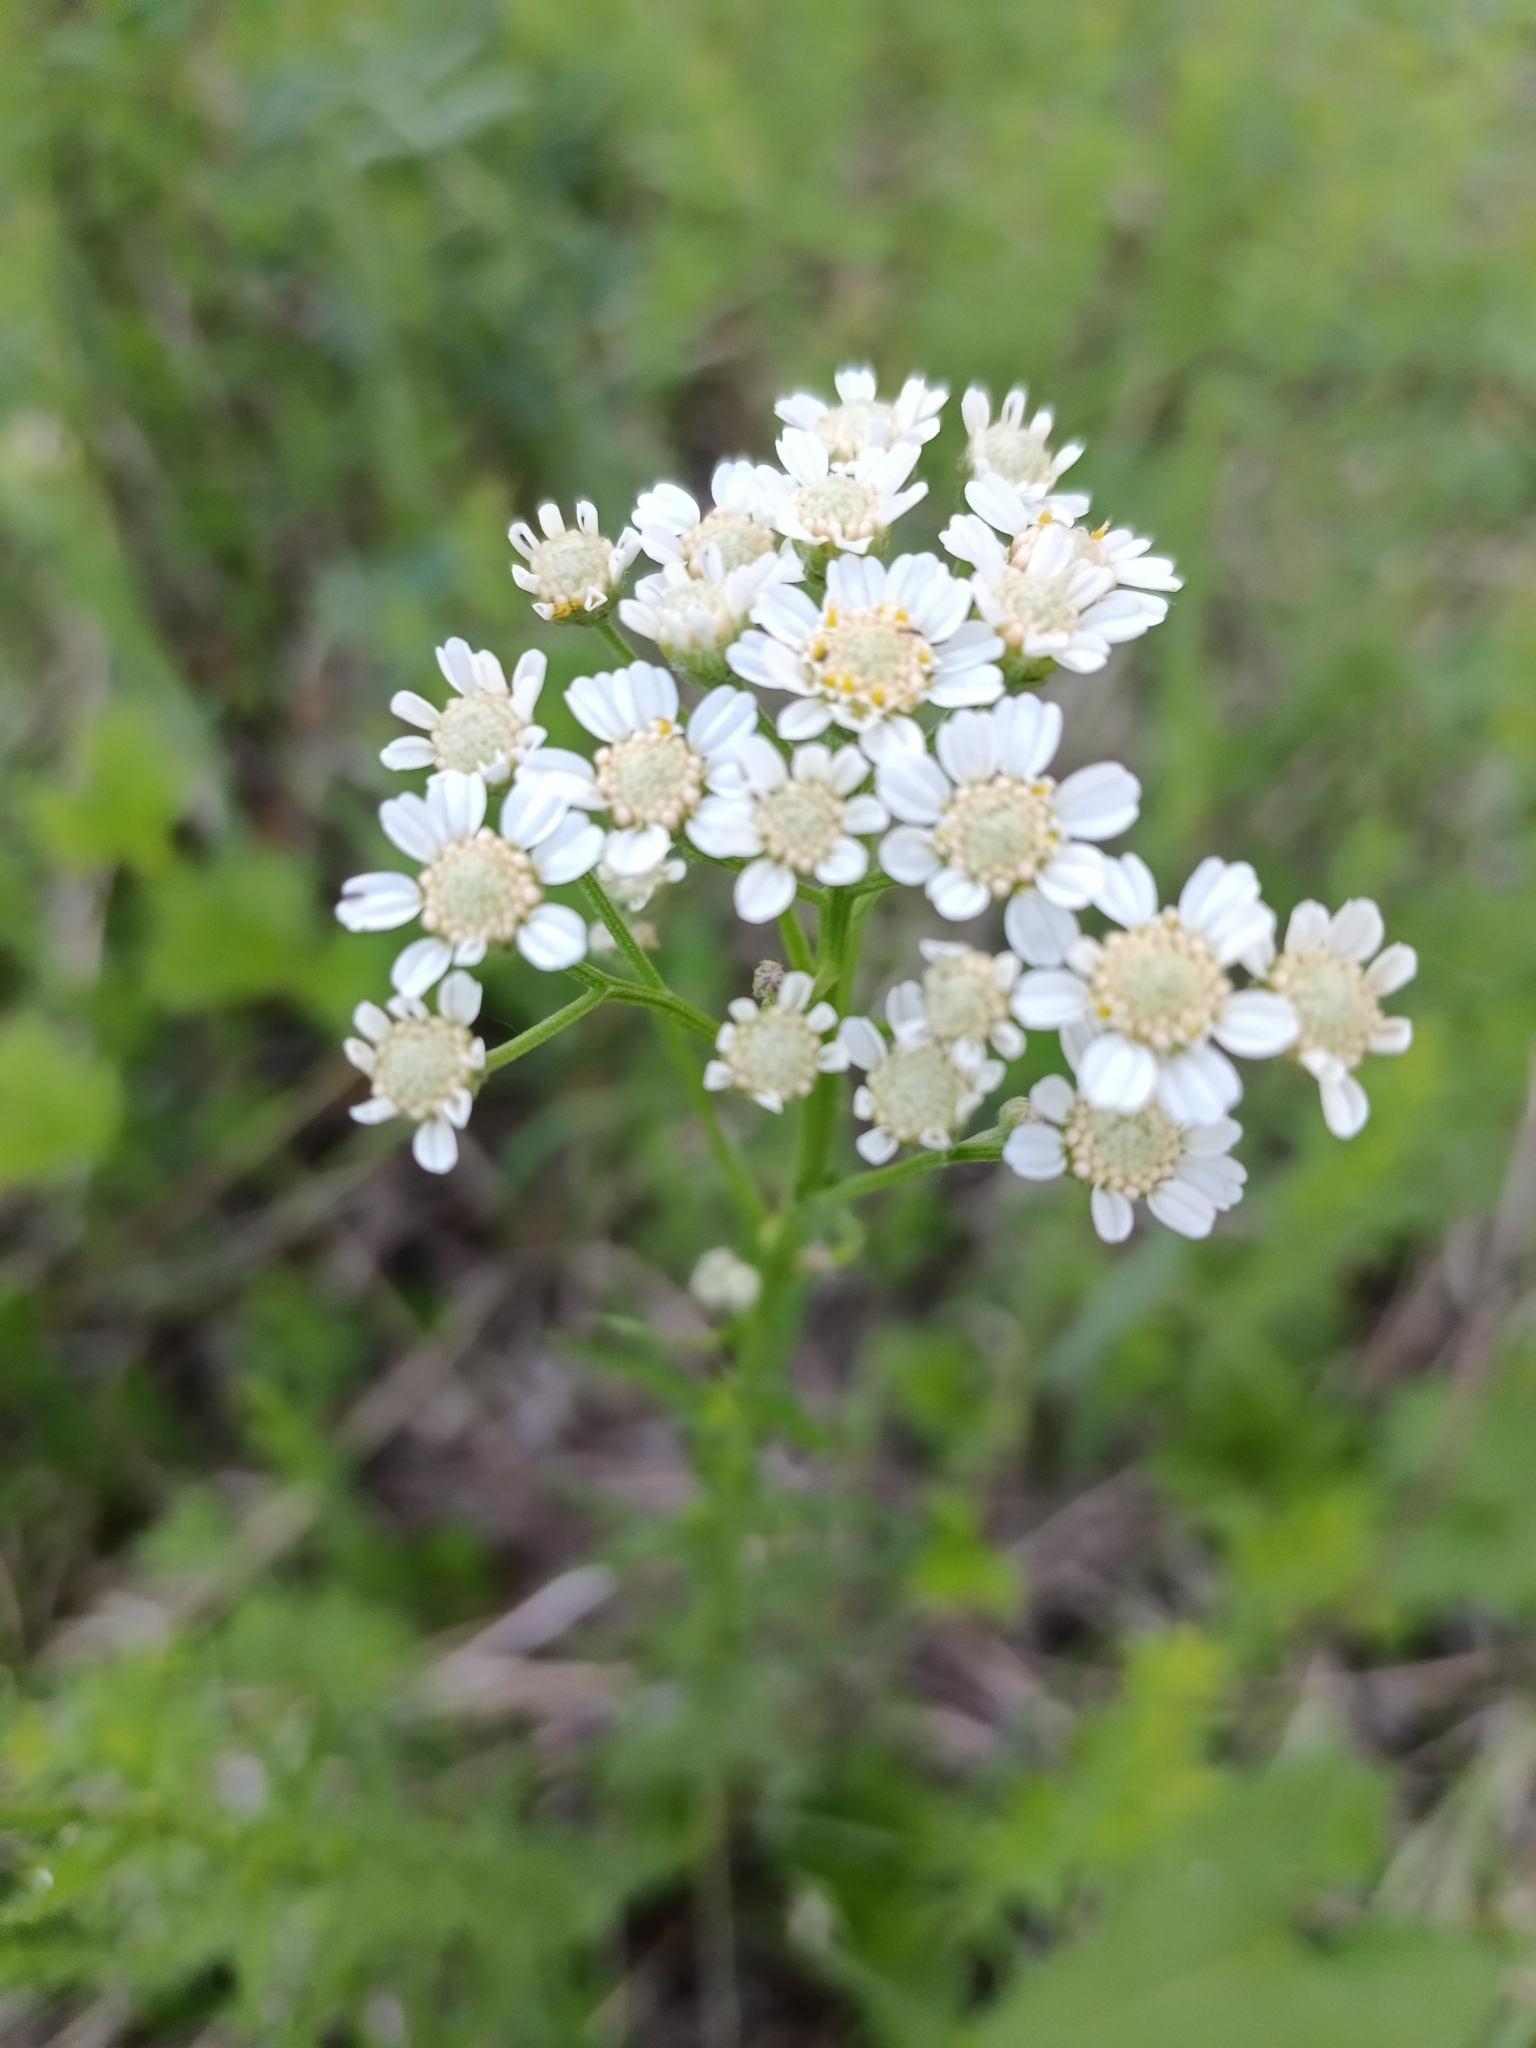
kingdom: Plantae
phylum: Tracheophyta
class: Magnoliopsida
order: Asterales
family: Asteraceae
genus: Achillea
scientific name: Achillea impatiens
